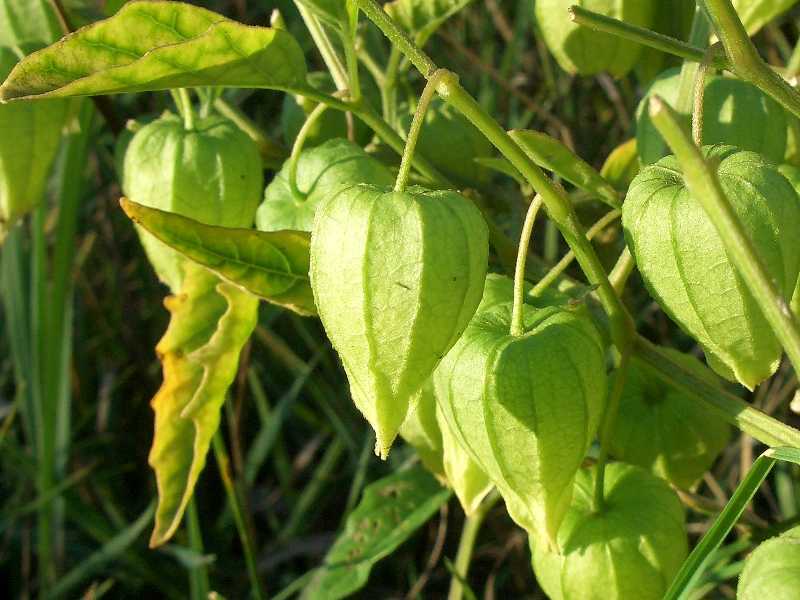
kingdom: Plantae
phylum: Tracheophyta
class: Magnoliopsida
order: Solanales
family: Solanaceae
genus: Physalis
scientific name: Physalis longifolia
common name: Common ground-cherry
